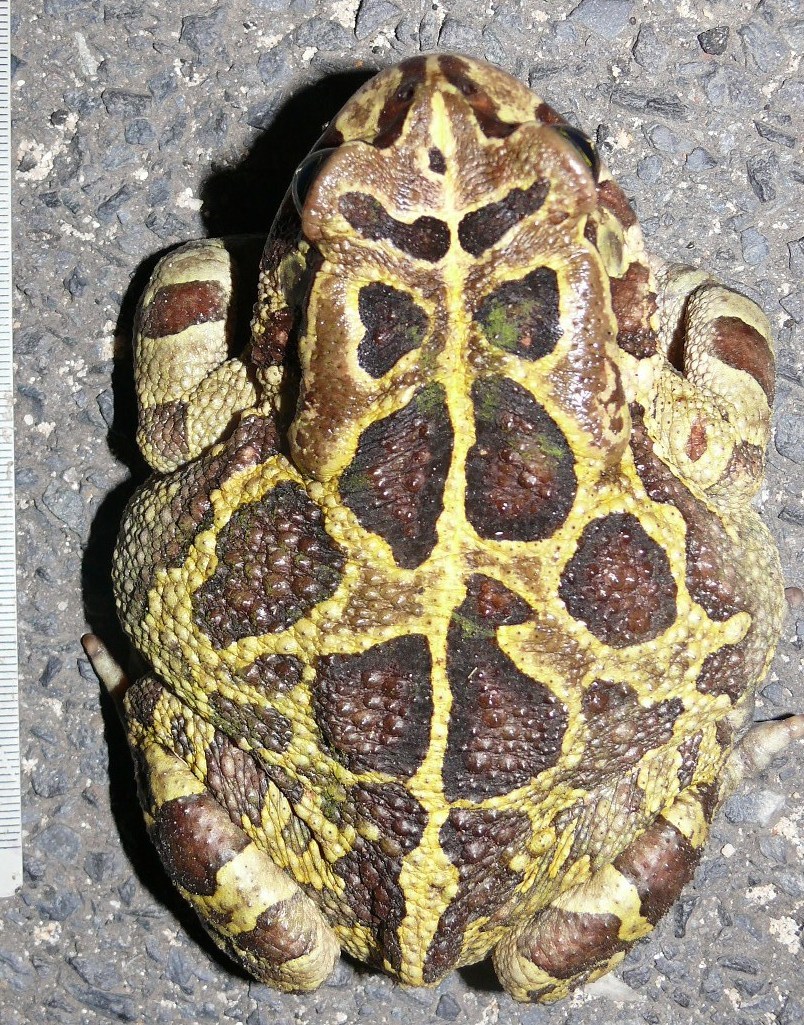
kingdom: Animalia
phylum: Chordata
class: Amphibia
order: Anura
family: Bufonidae
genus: Sclerophrys
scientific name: Sclerophrys pantherina
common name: Panther toad
